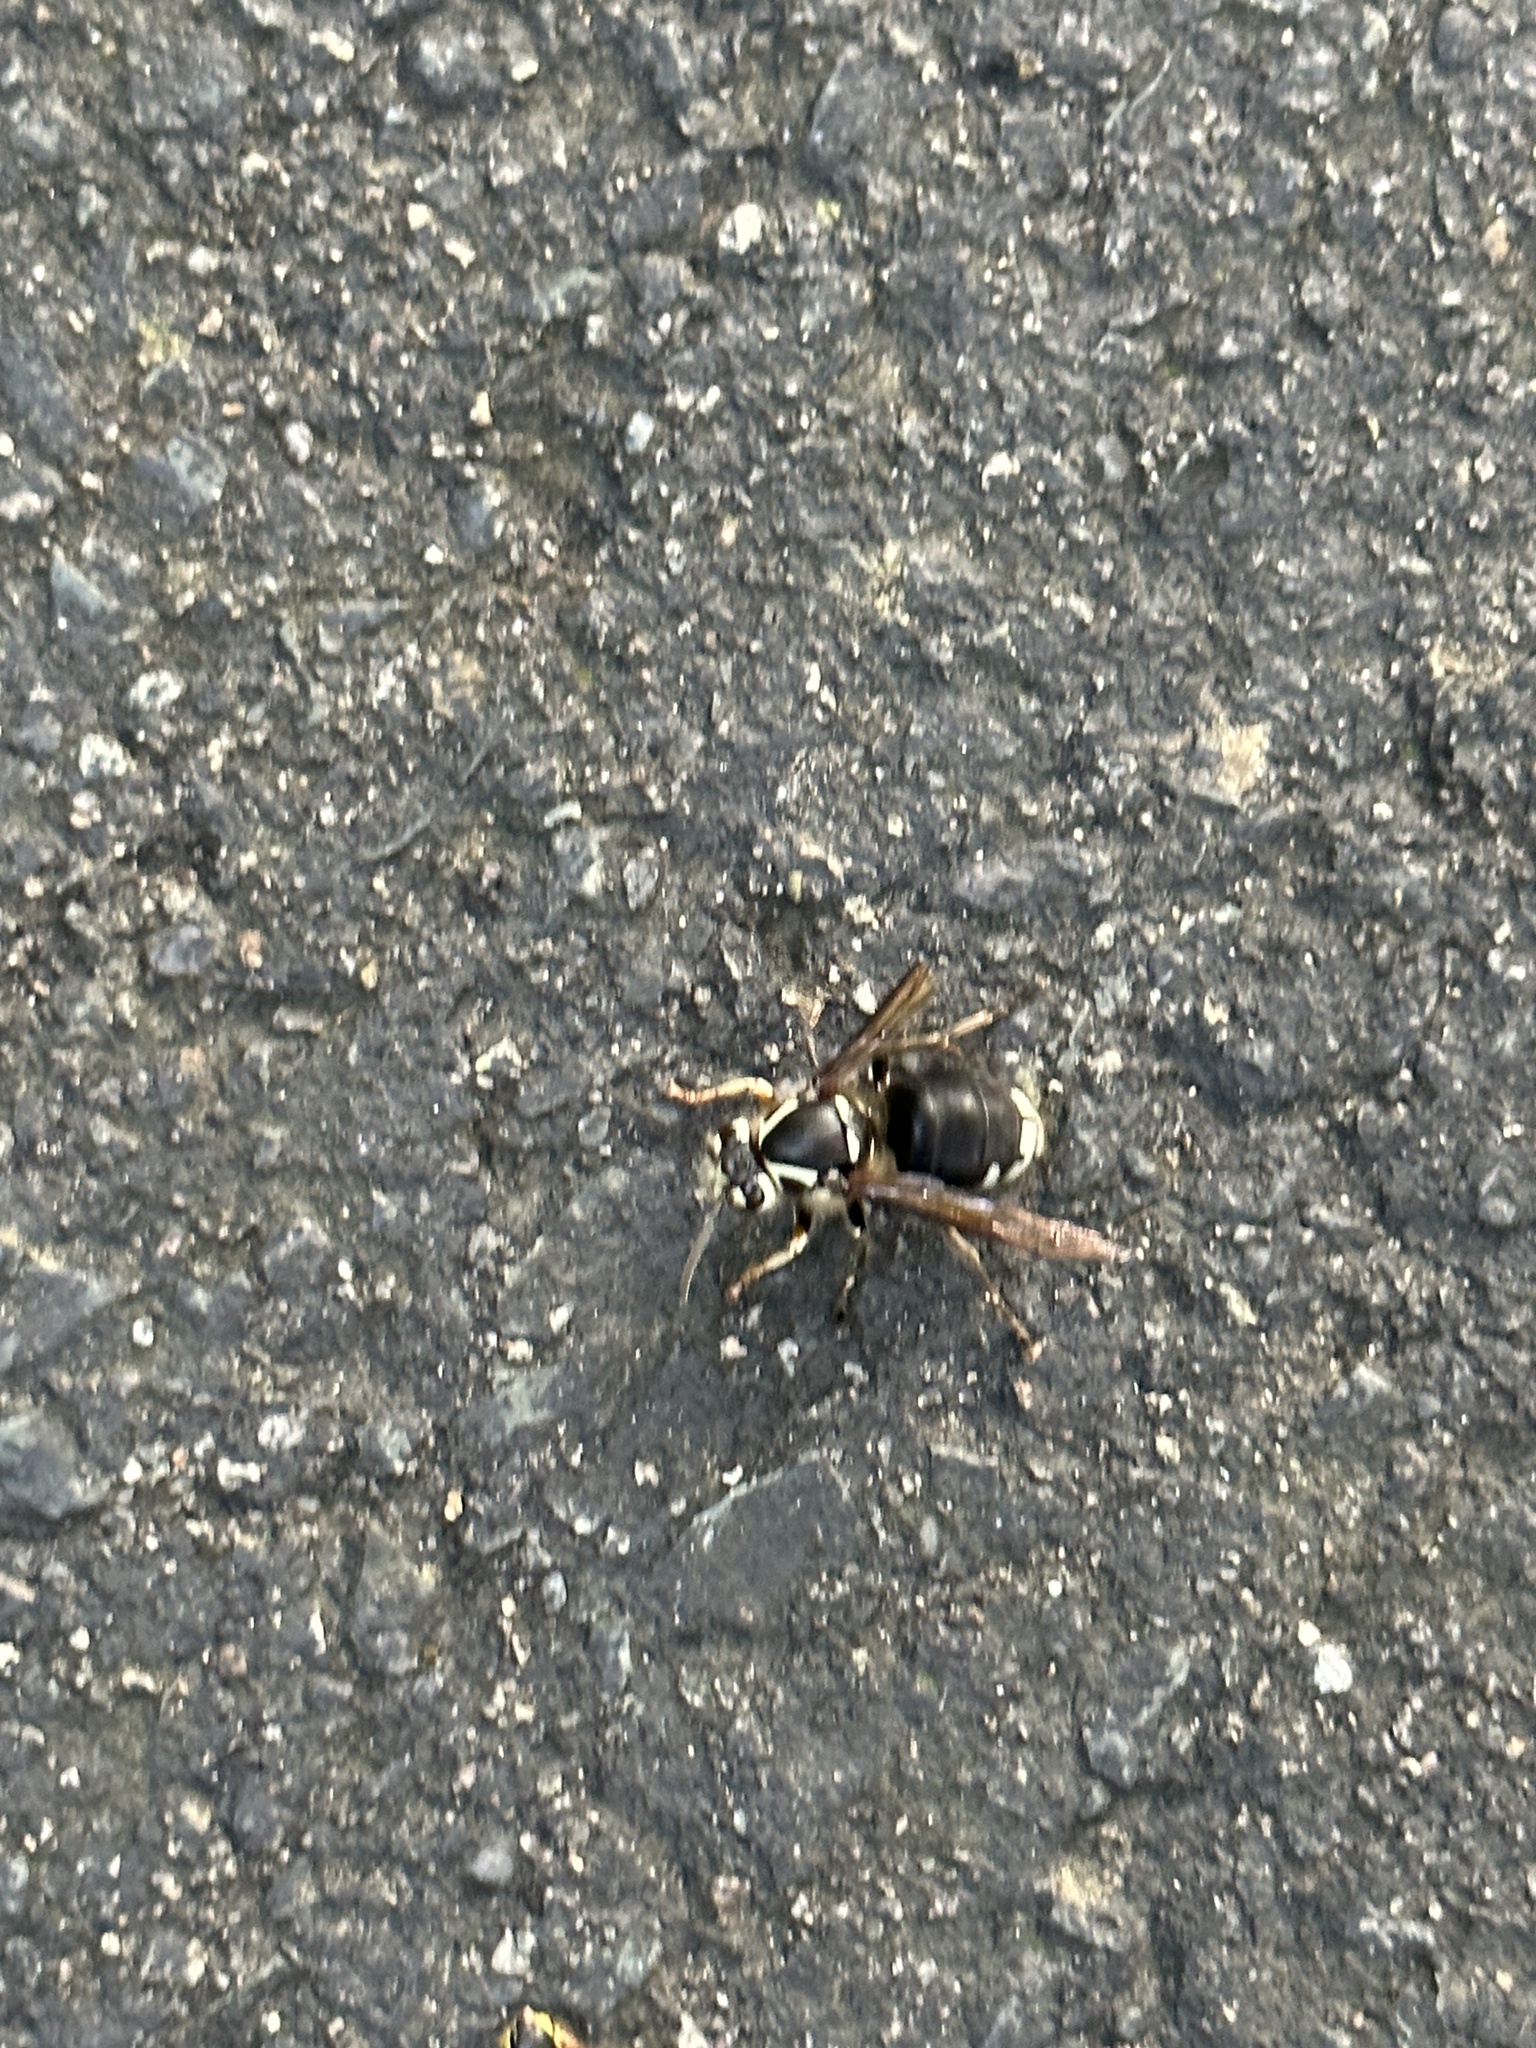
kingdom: Animalia
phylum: Arthropoda
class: Insecta
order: Hymenoptera
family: Vespidae
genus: Dolichovespula
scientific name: Dolichovespula maculata
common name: Bald-faced hornet
